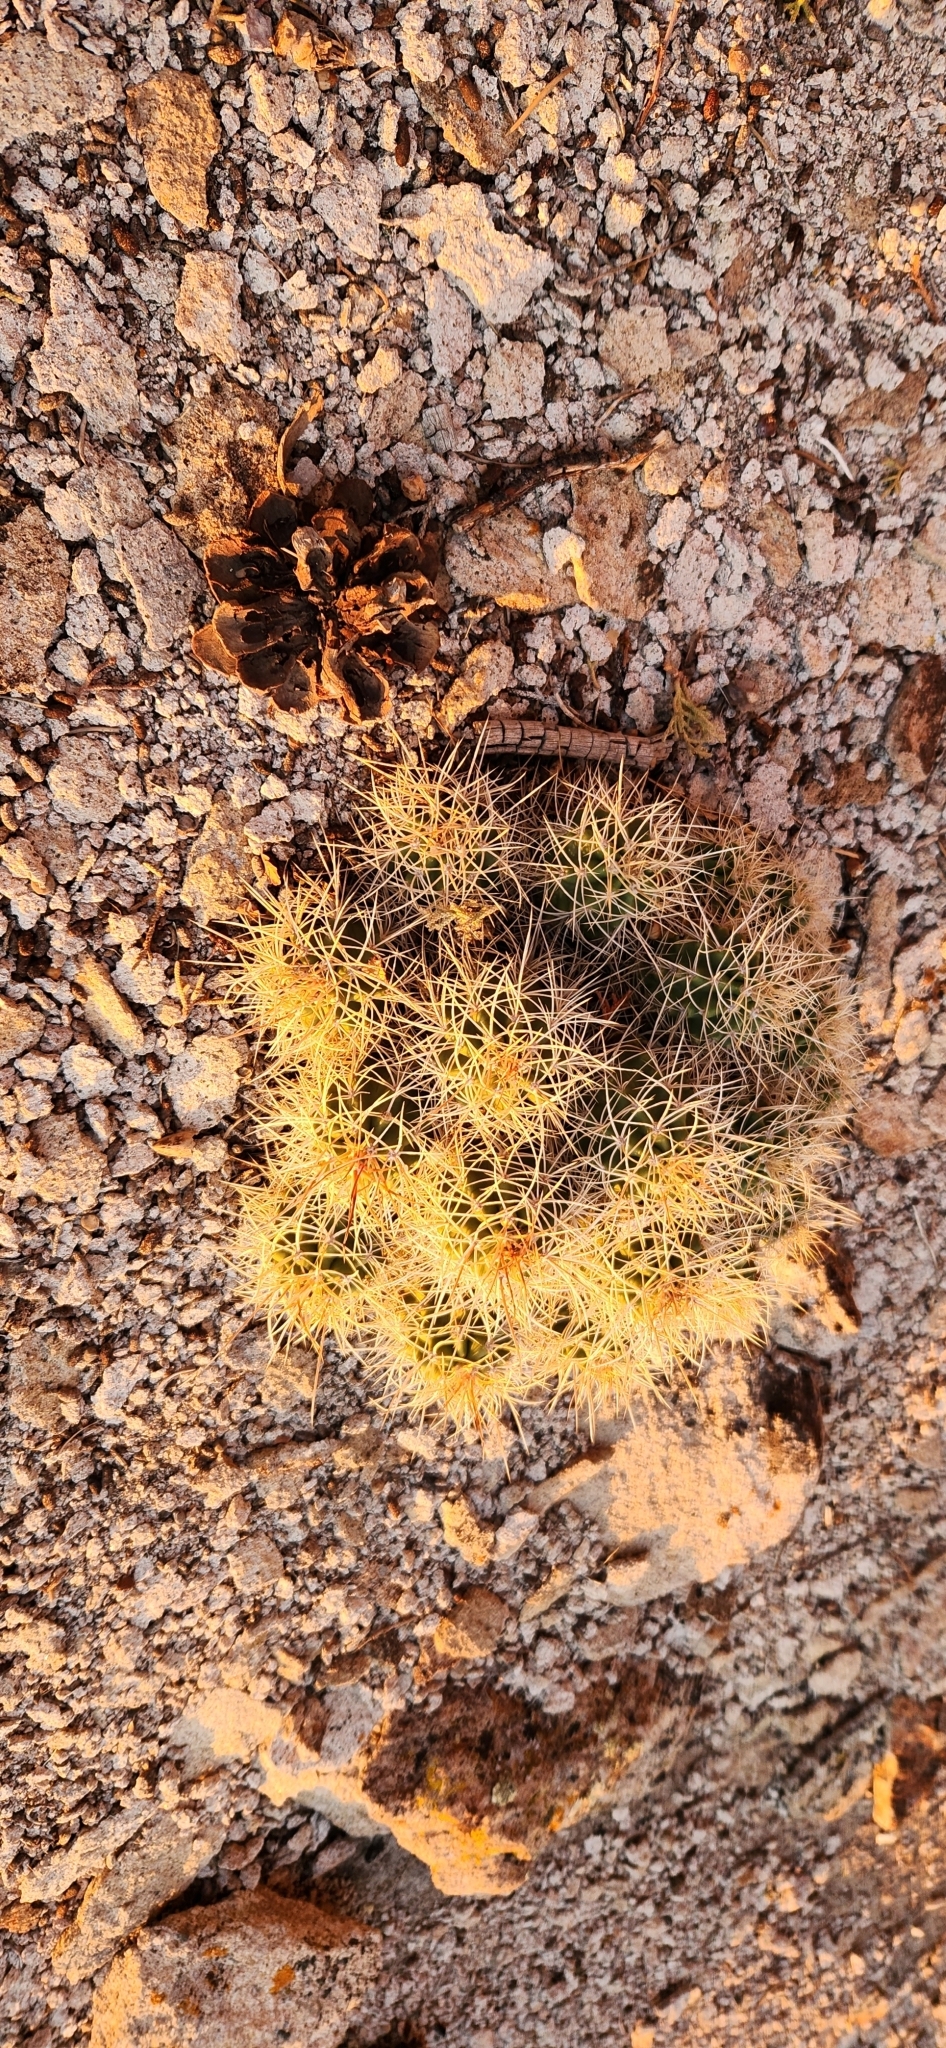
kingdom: Plantae
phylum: Tracheophyta
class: Magnoliopsida
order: Caryophyllales
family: Cactaceae
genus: Echinocereus
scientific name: Echinocereus triglochidiatus
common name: Claretcup hedgehog
